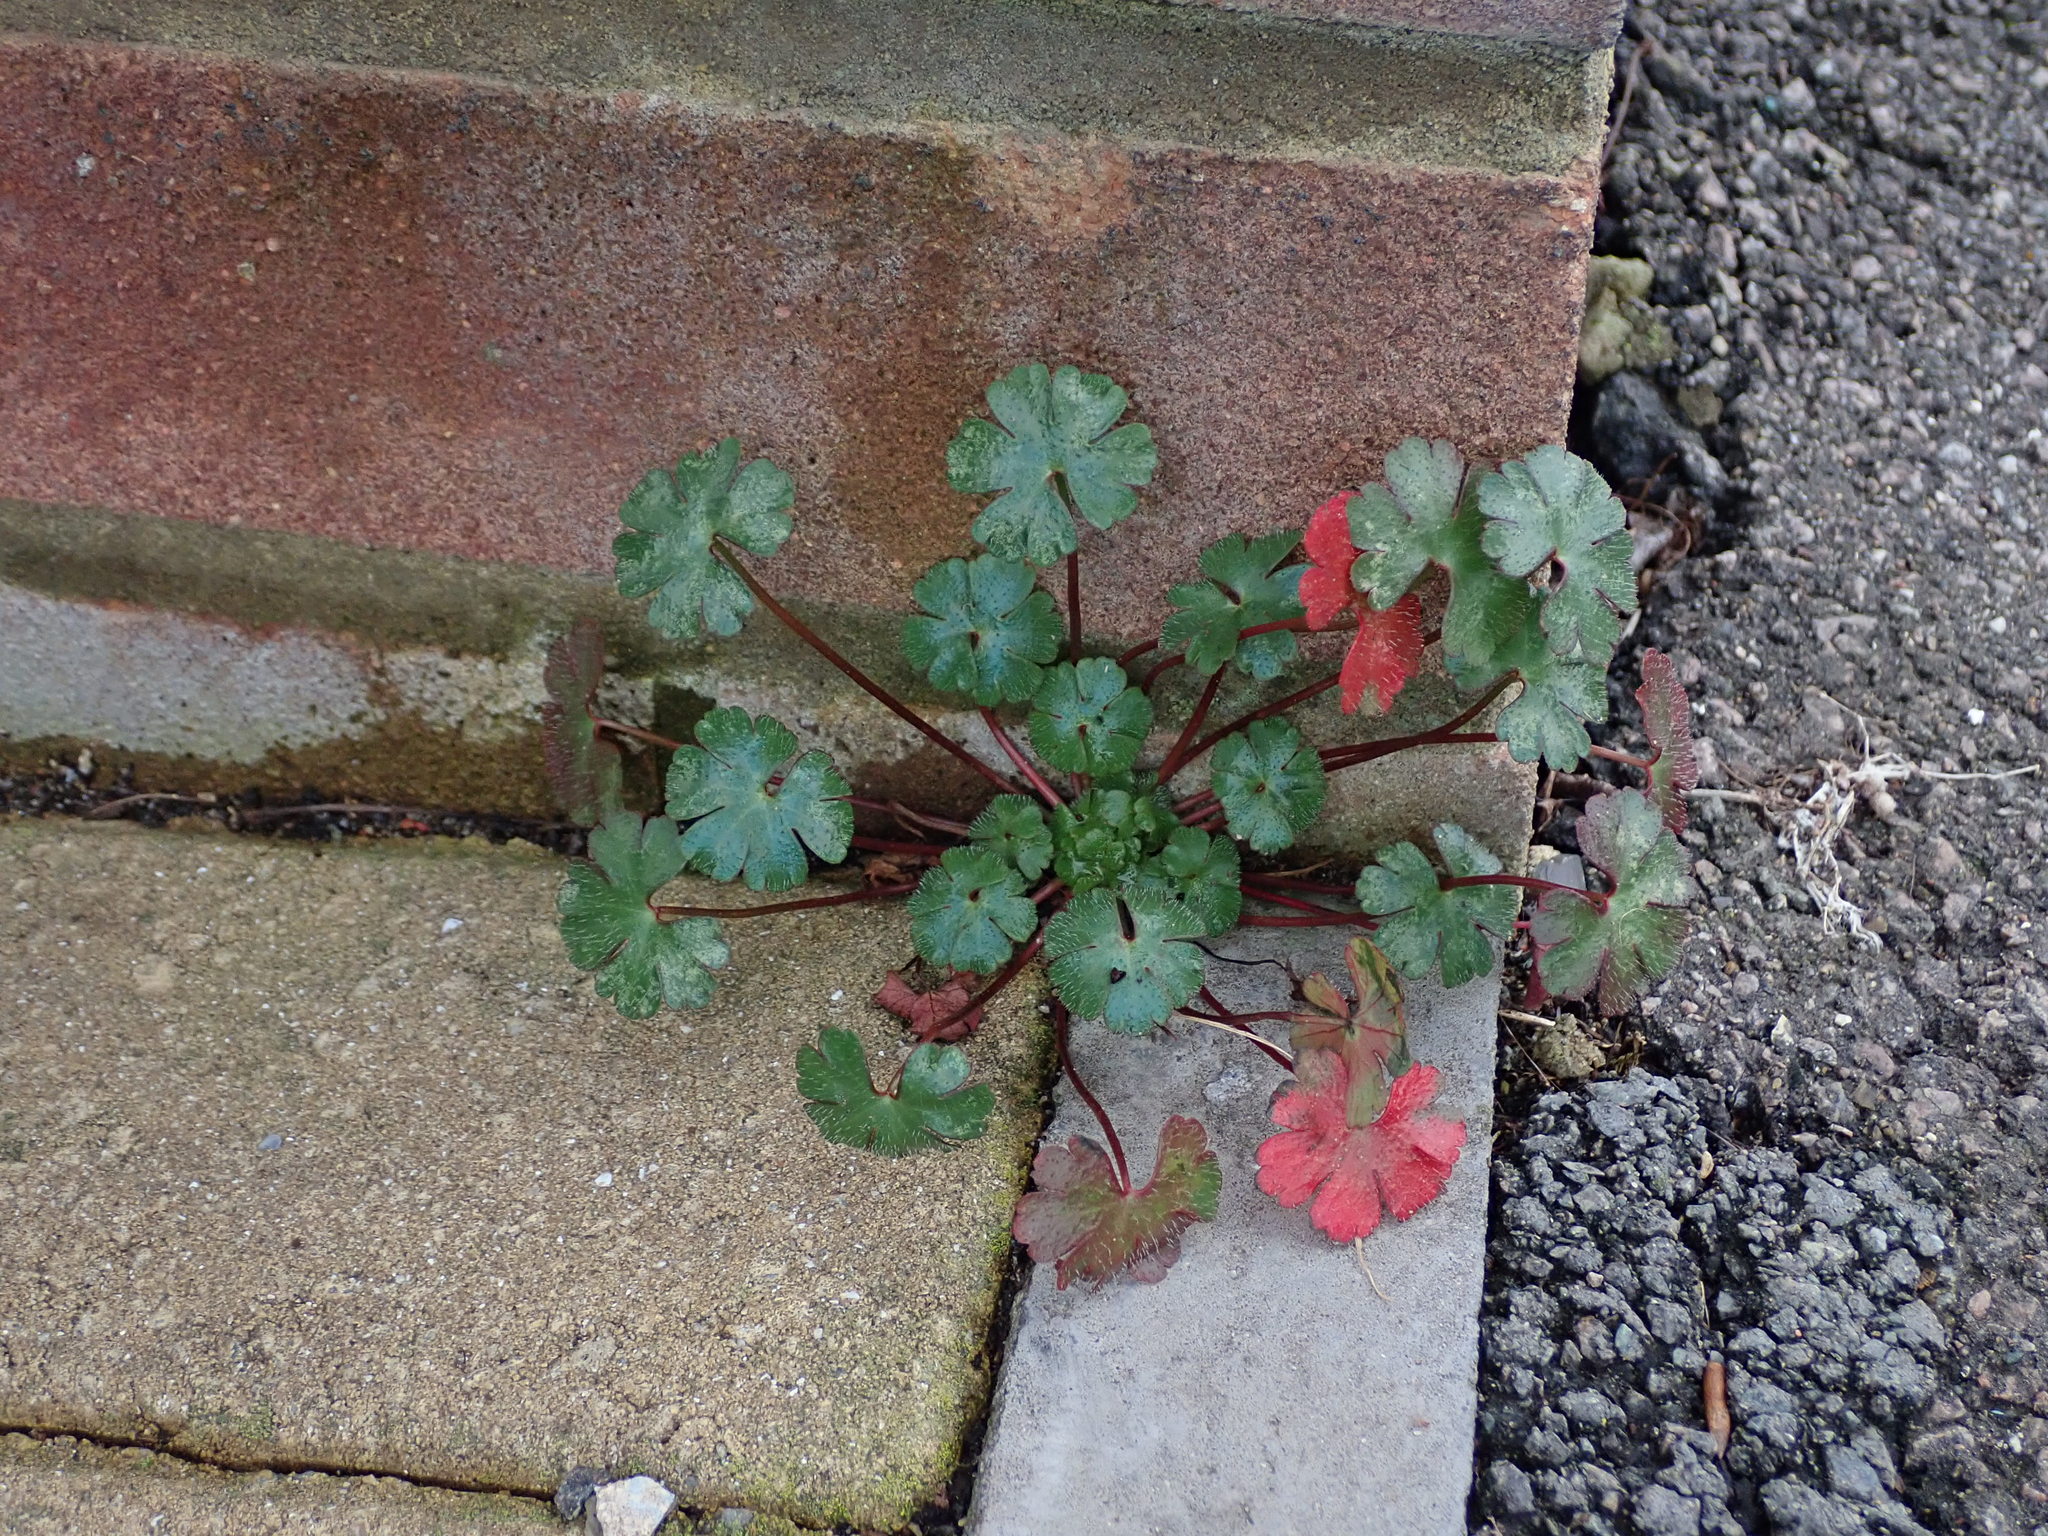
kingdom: Plantae
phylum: Tracheophyta
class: Magnoliopsida
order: Geraniales
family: Geraniaceae
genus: Geranium
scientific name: Geranium lucidum
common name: Shining crane's-bill
